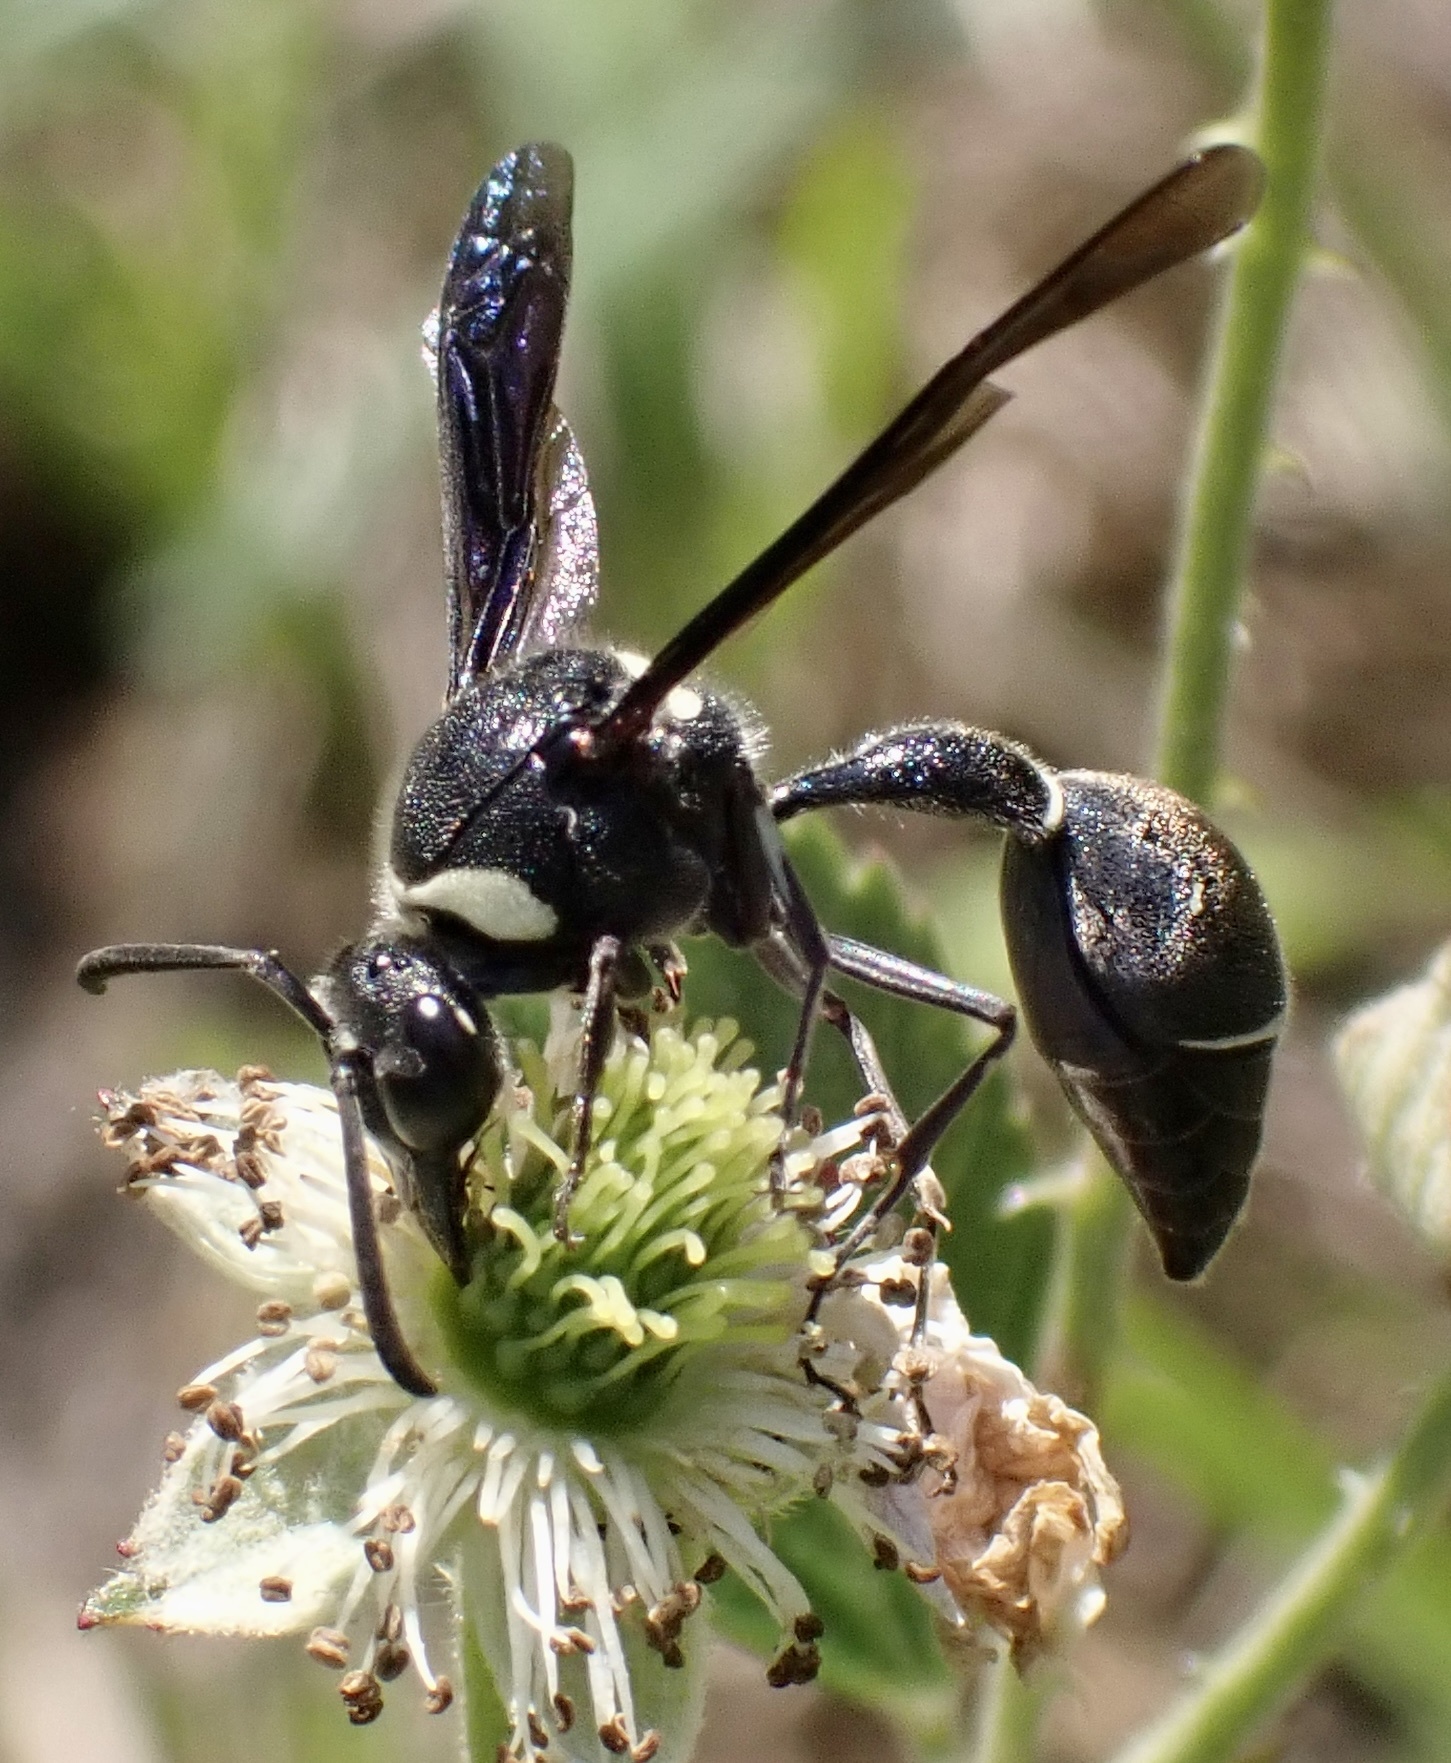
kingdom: Animalia
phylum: Arthropoda
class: Insecta
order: Hymenoptera
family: Vespidae
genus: Eumenes
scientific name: Eumenes fraternus
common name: Fraternal potter wasp
